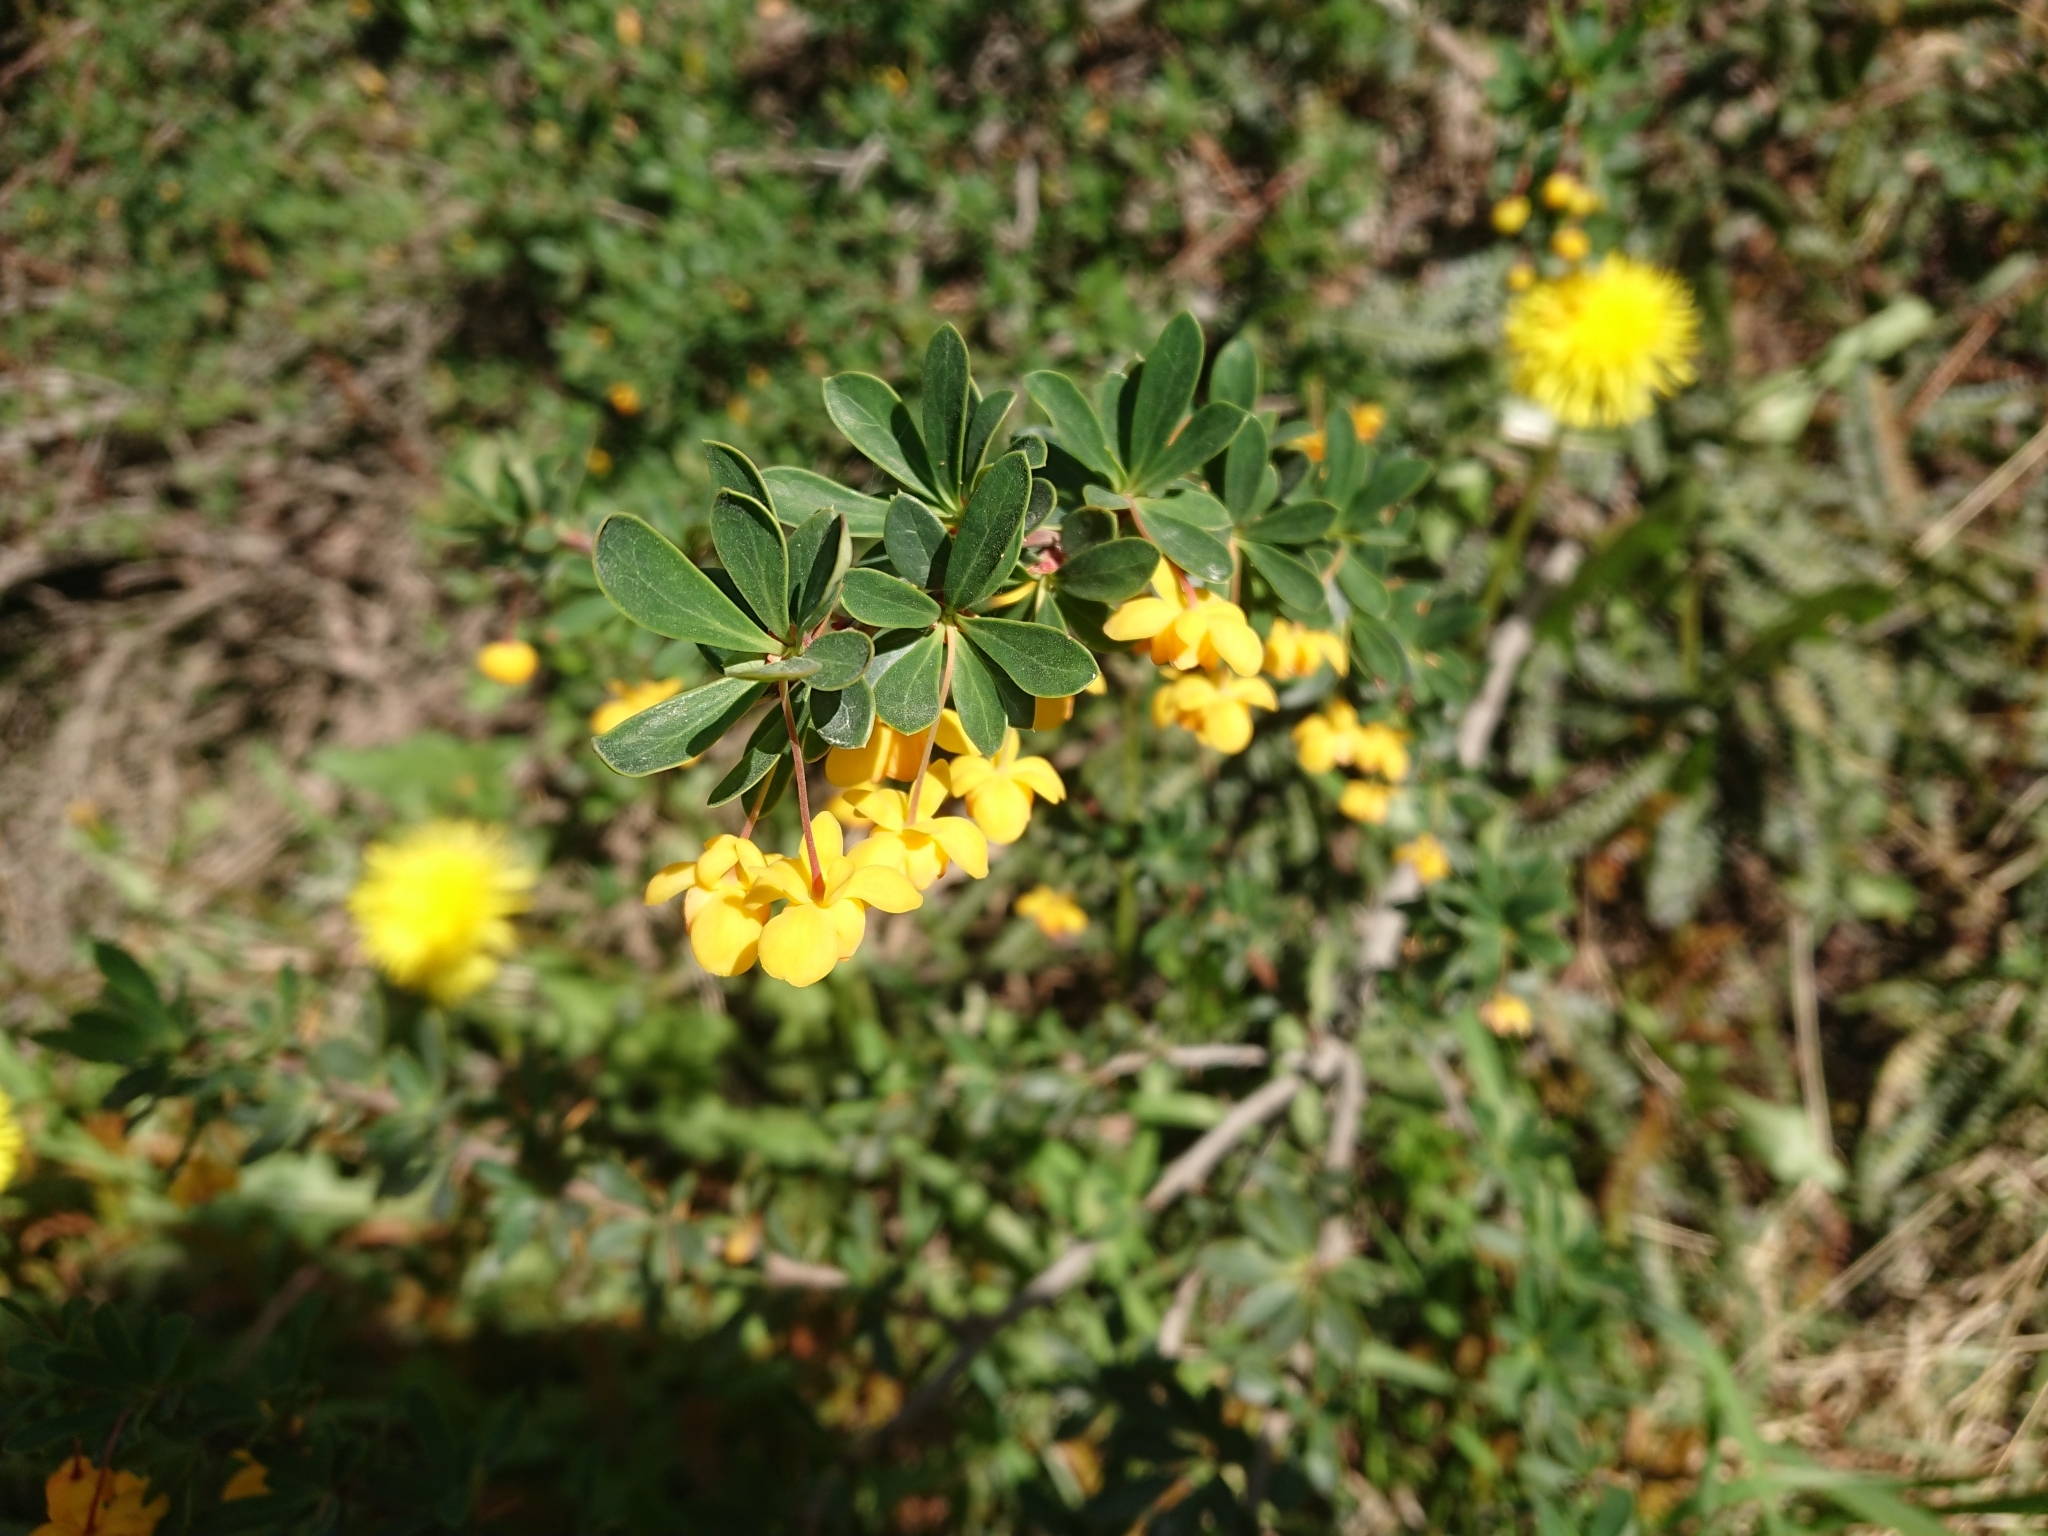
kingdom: Plantae
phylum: Tracheophyta
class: Magnoliopsida
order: Ranunculales
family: Berberidaceae
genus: Berberis
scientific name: Berberis microphylla
